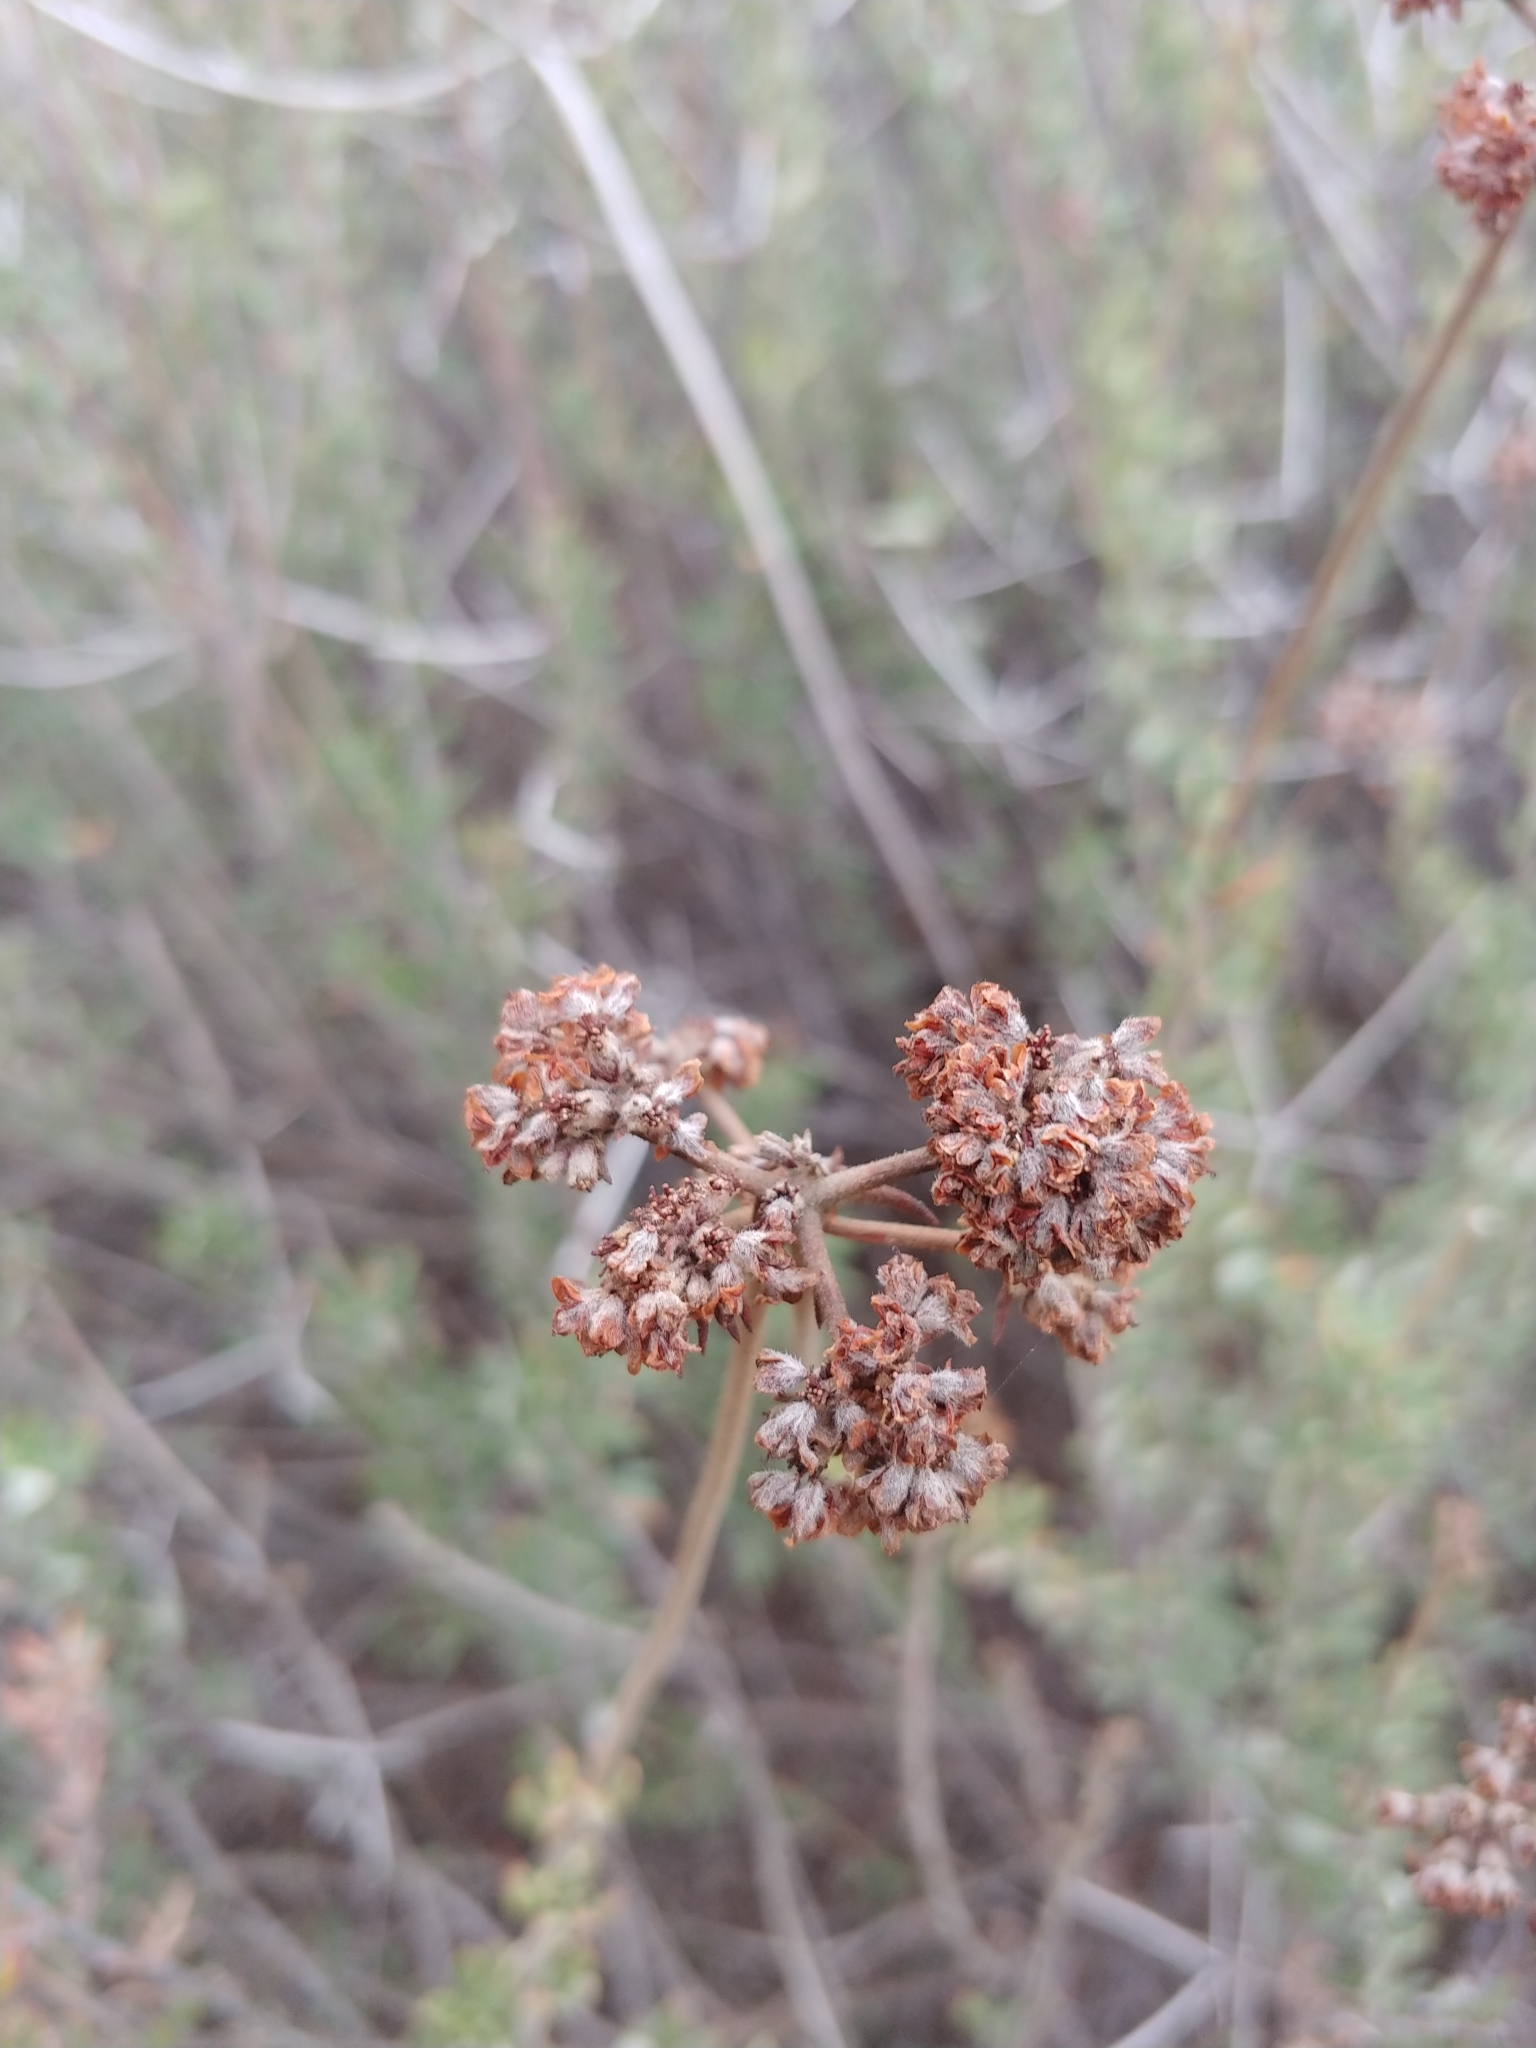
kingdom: Plantae
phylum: Tracheophyta
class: Magnoliopsida
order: Caryophyllales
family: Polygonaceae
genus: Eriogonum
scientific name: Eriogonum fasciculatum
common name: California wild buckwheat
